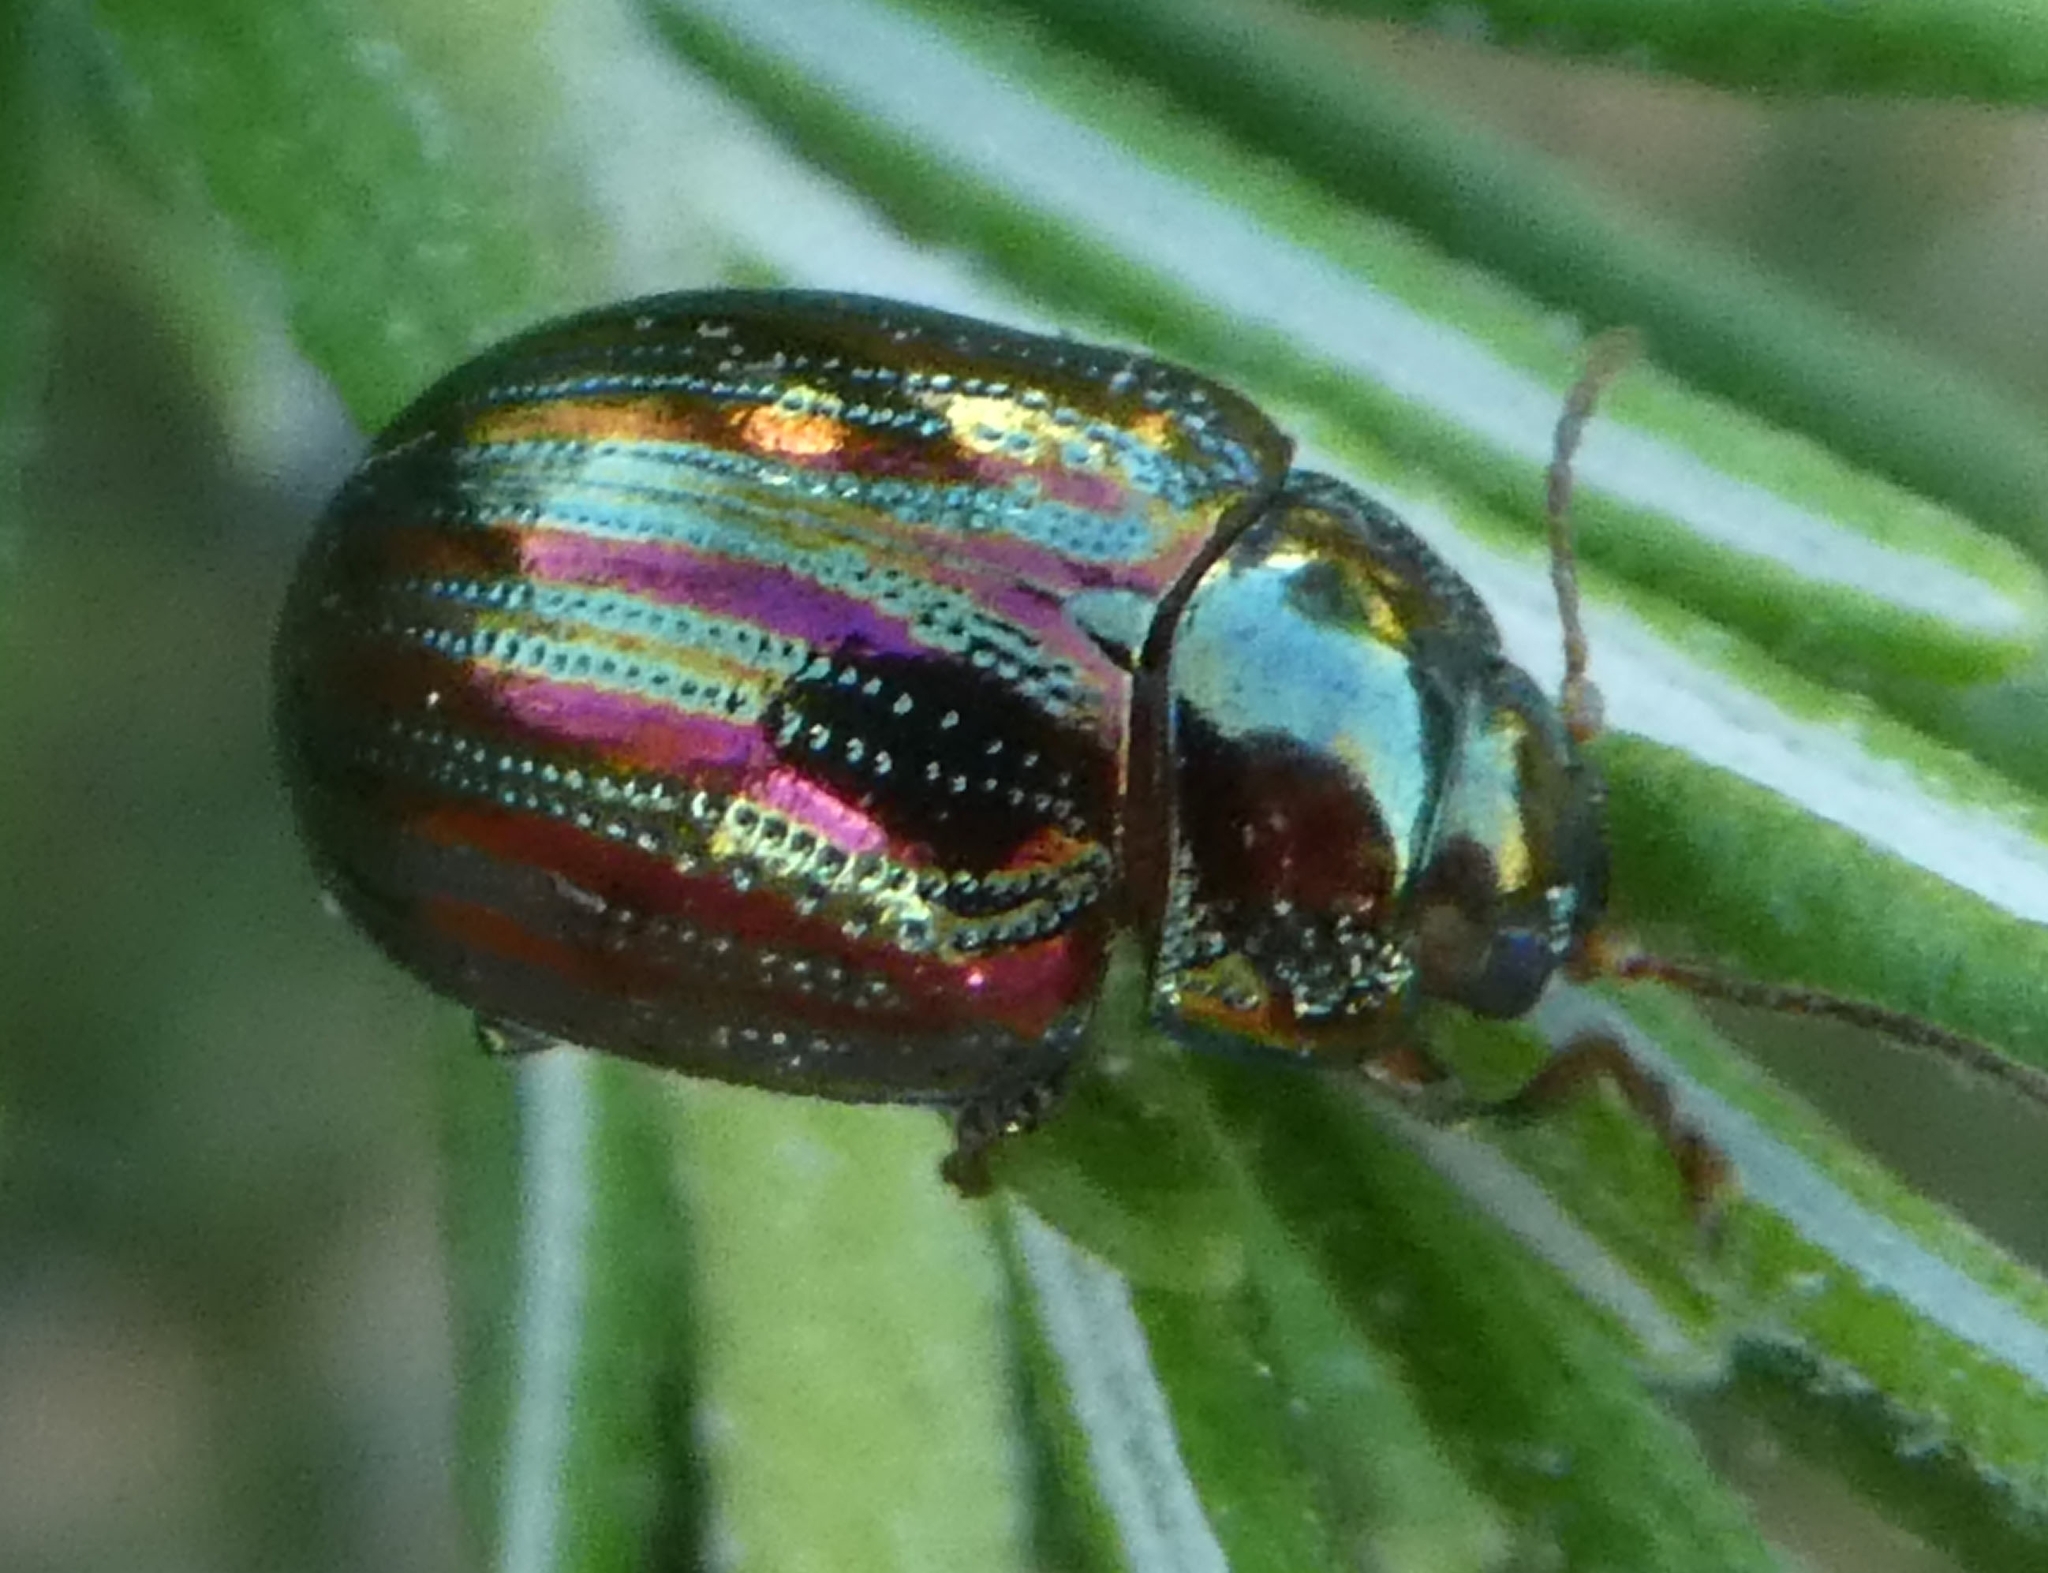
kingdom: Animalia
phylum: Arthropoda
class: Insecta
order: Coleoptera
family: Chrysomelidae
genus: Chrysolina
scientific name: Chrysolina americana
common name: Rosemary beetle
